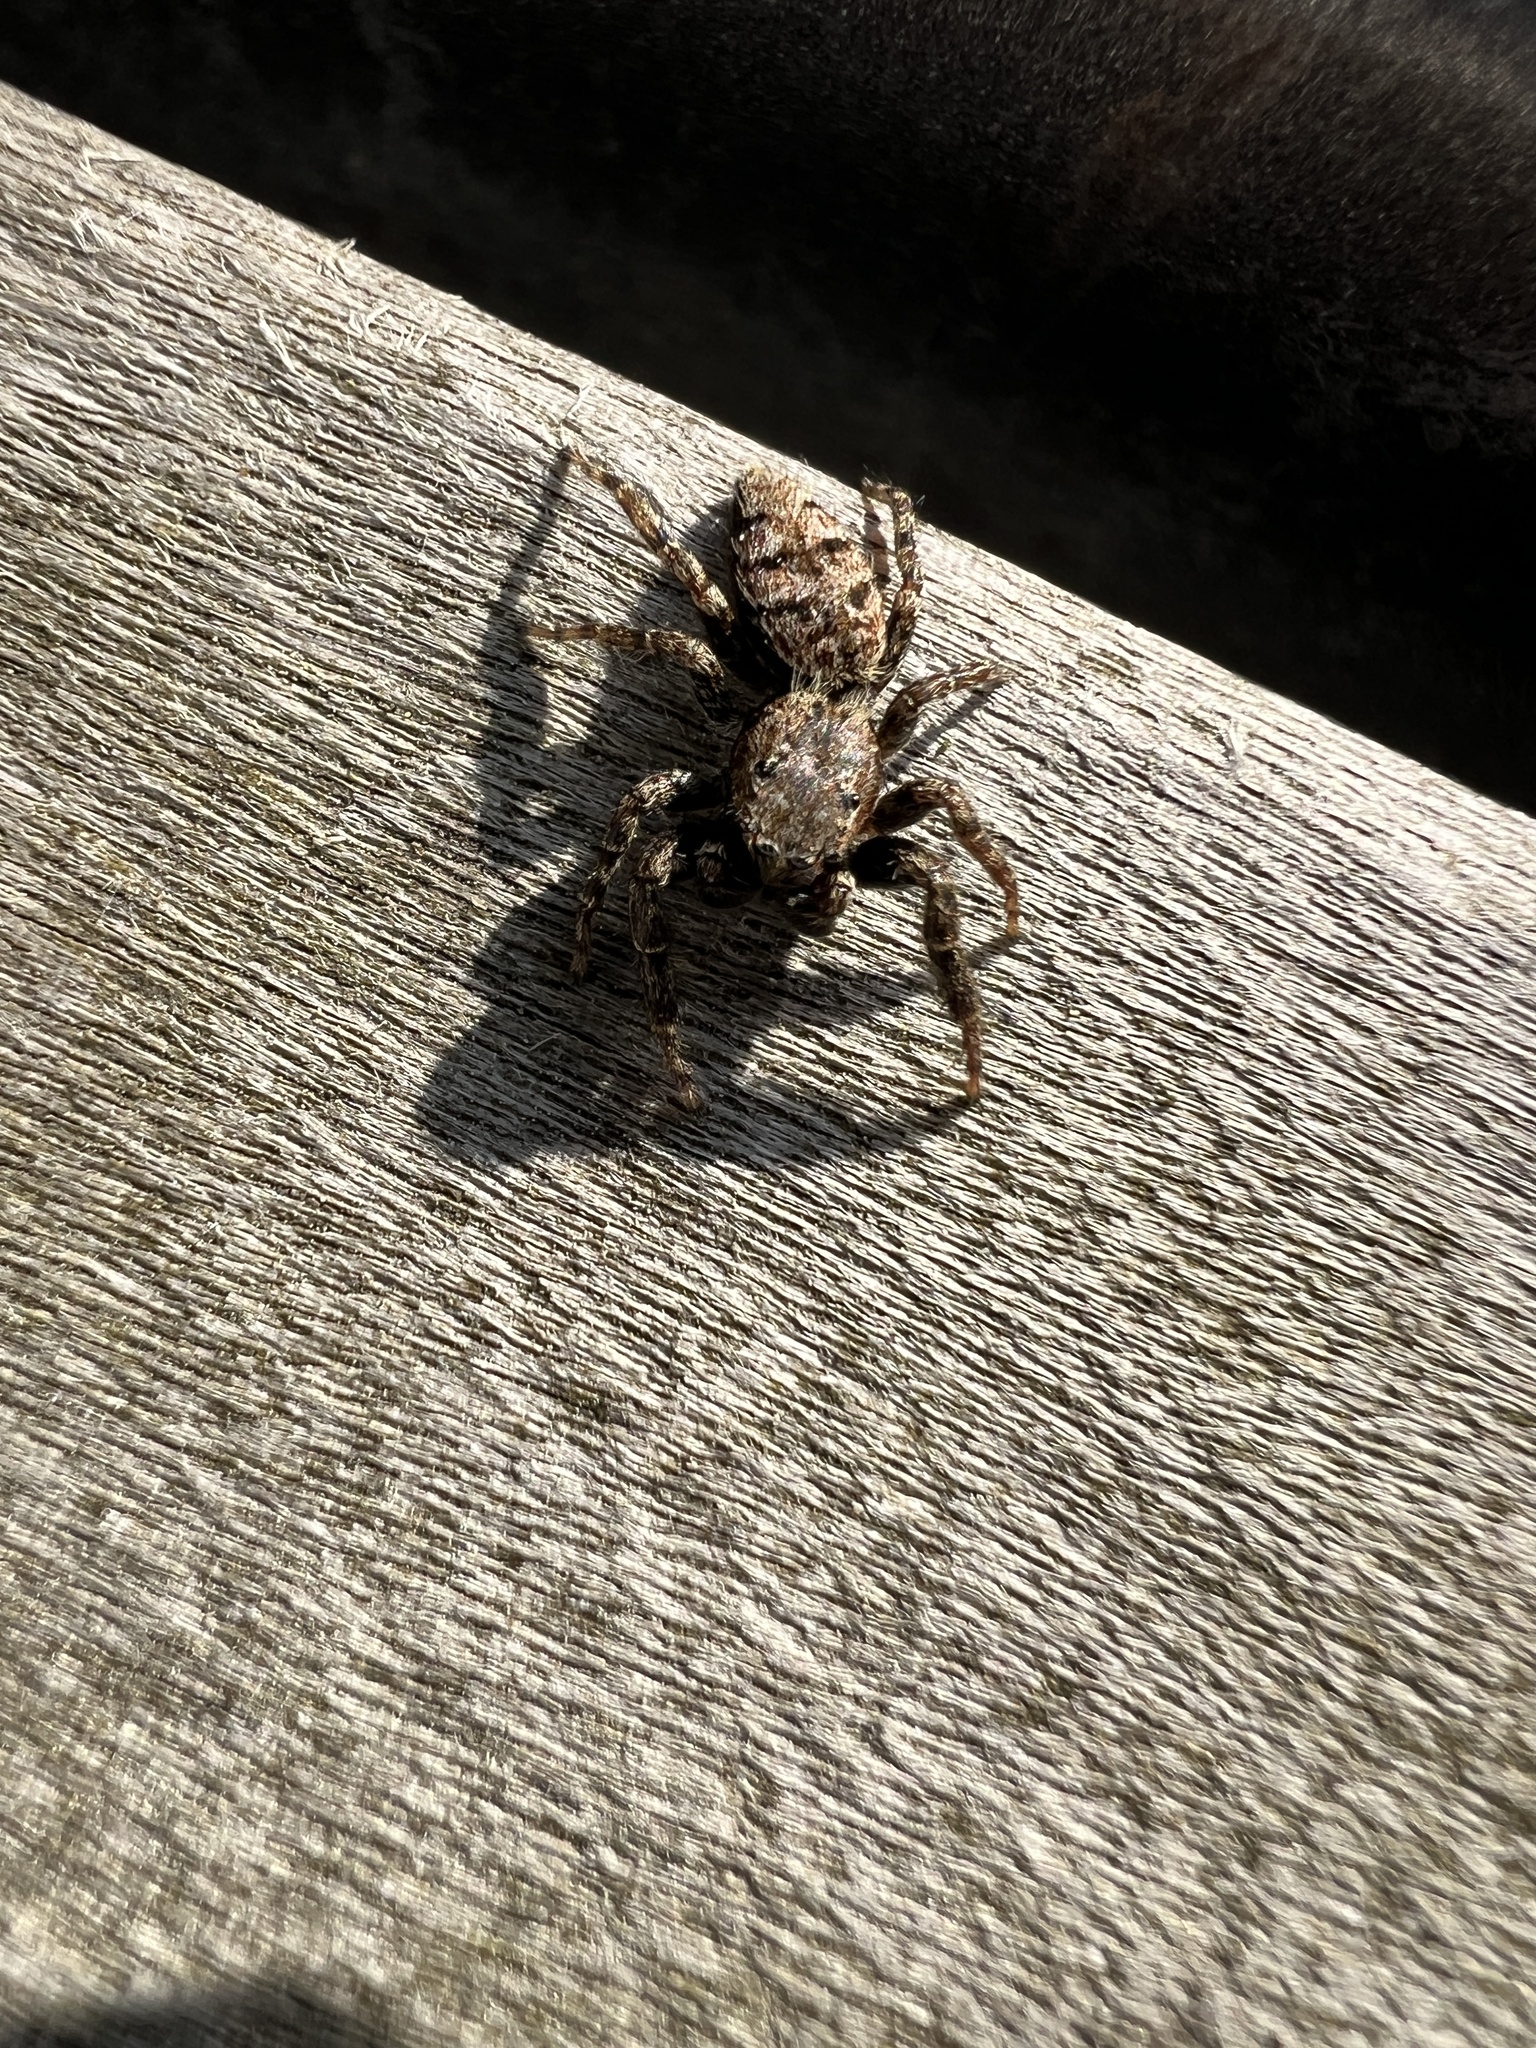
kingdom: Animalia
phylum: Arthropoda
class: Arachnida
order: Araneae
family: Salticidae
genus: Marpissa
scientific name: Marpissa muscosa
